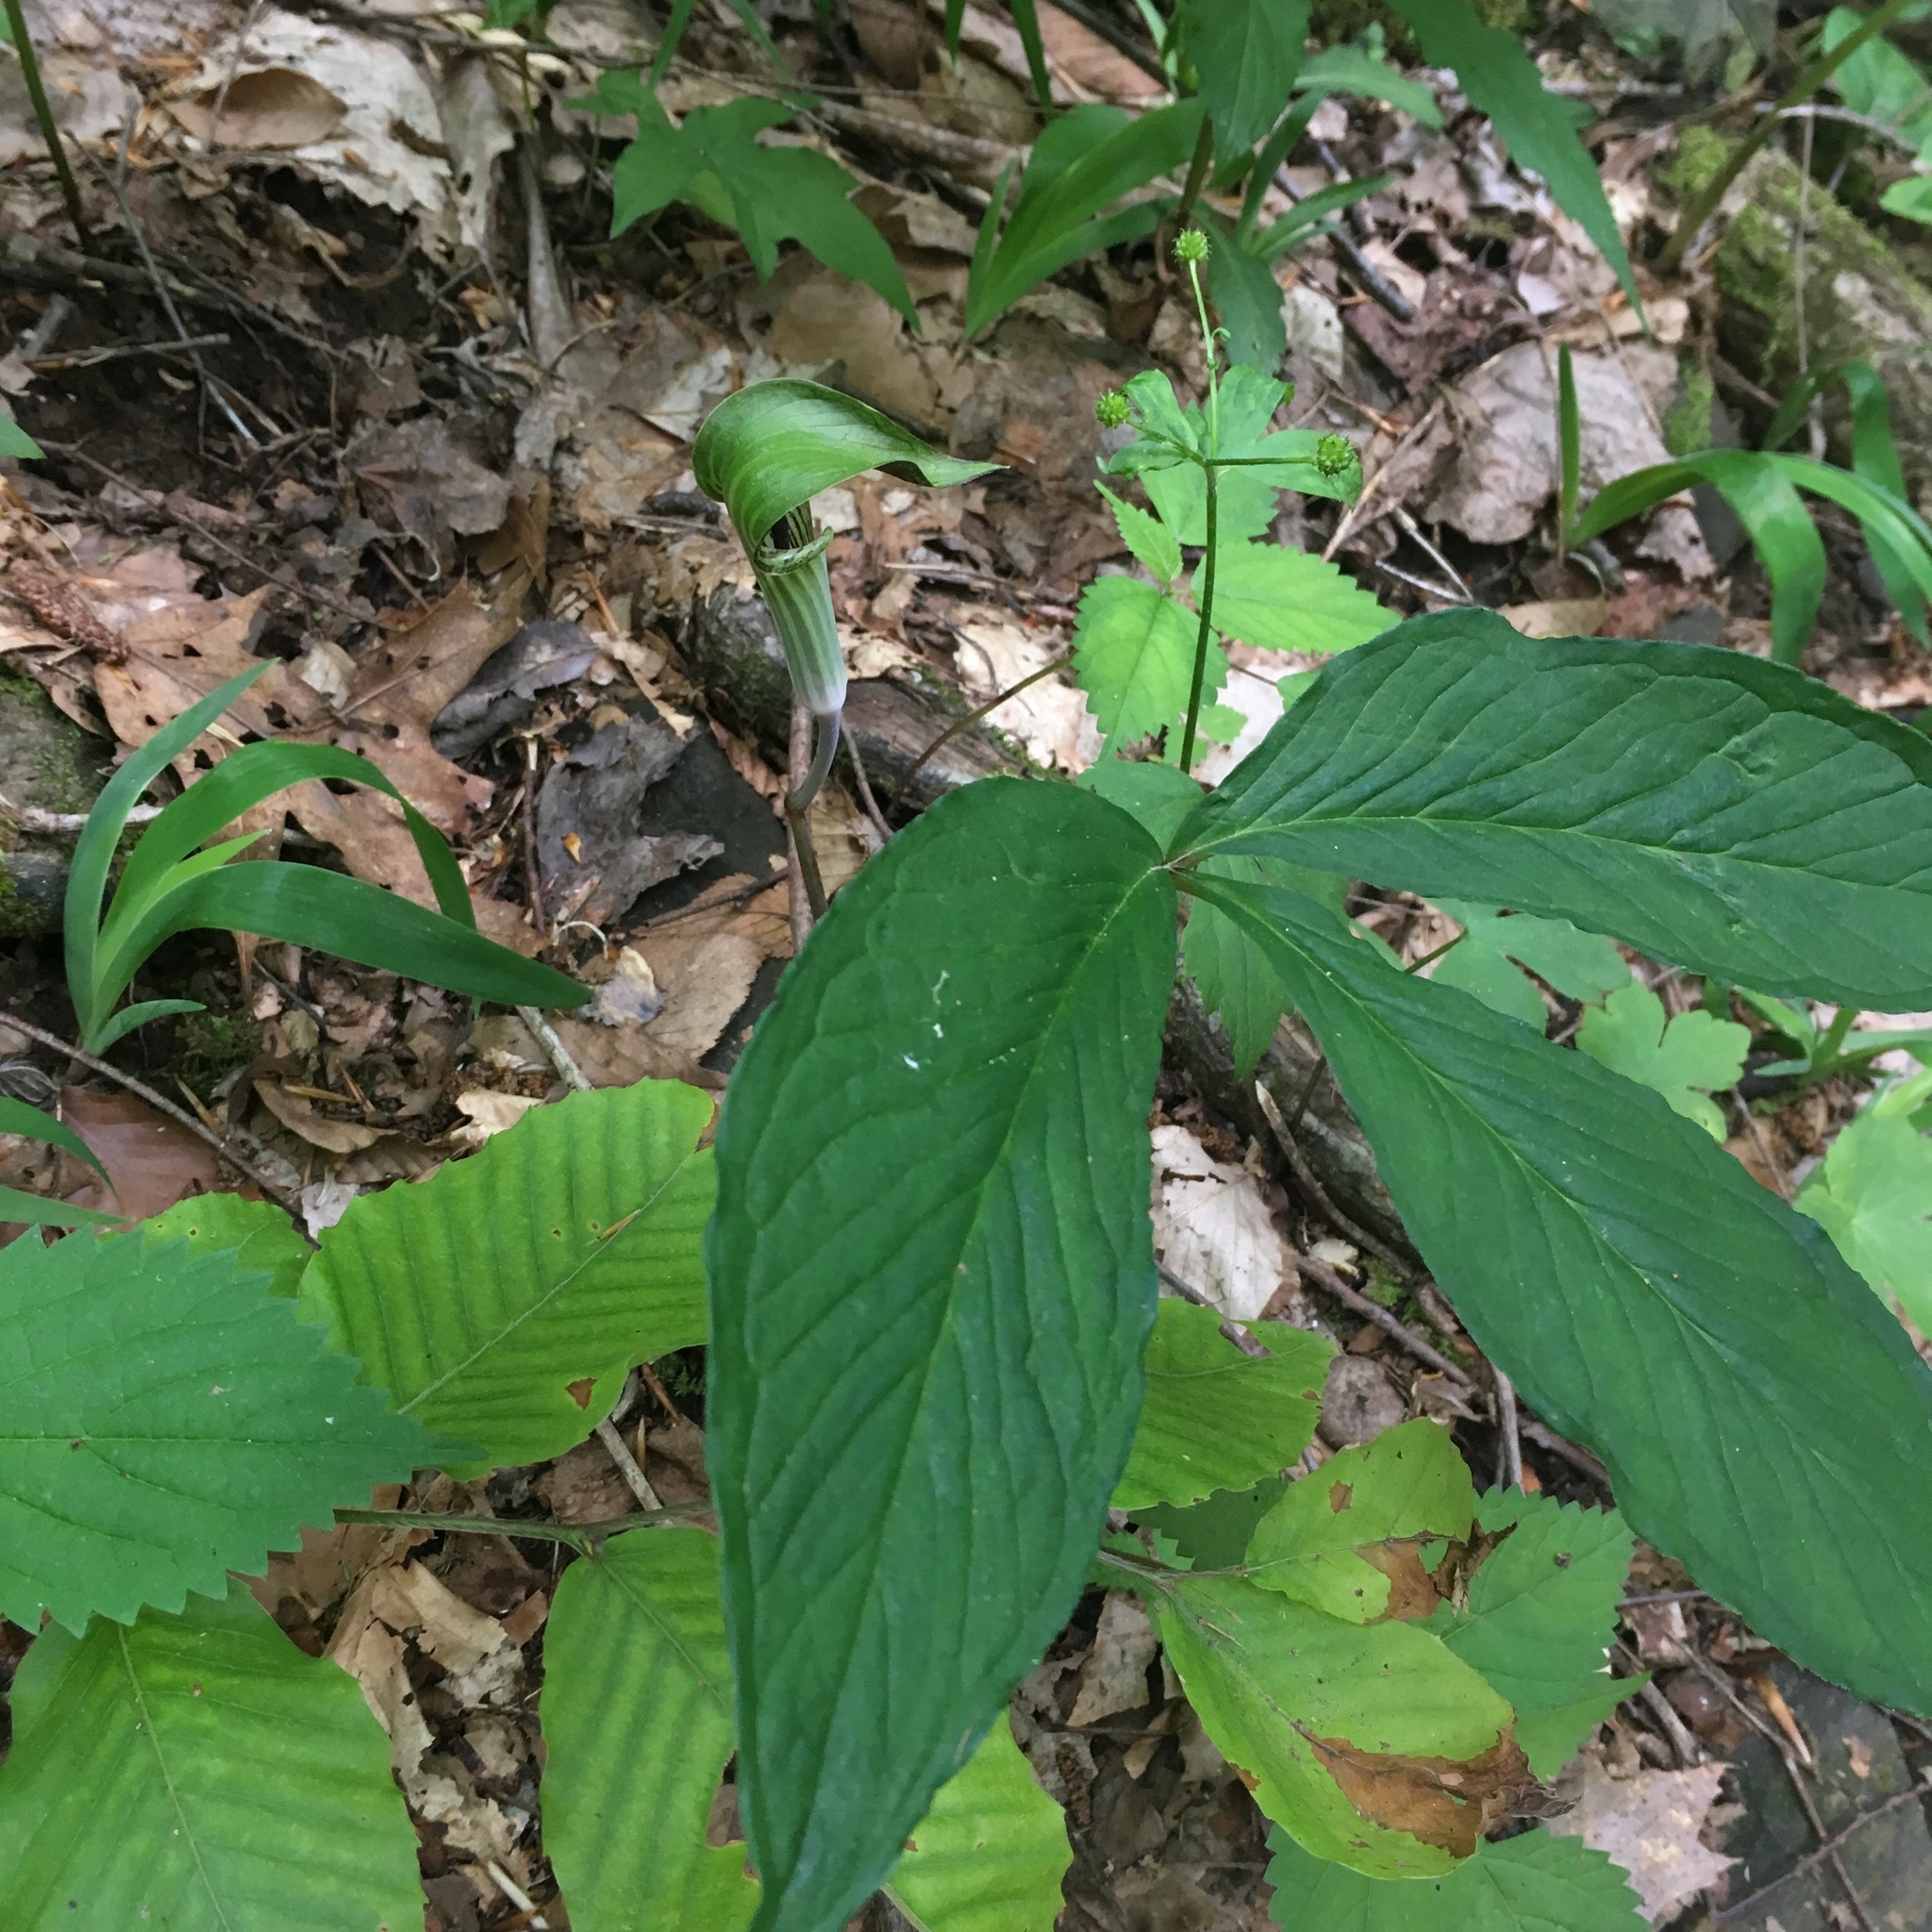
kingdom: Plantae
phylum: Tracheophyta
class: Liliopsida
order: Alismatales
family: Araceae
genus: Arisaema
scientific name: Arisaema triphyllum
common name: Jack-in-the-pulpit
